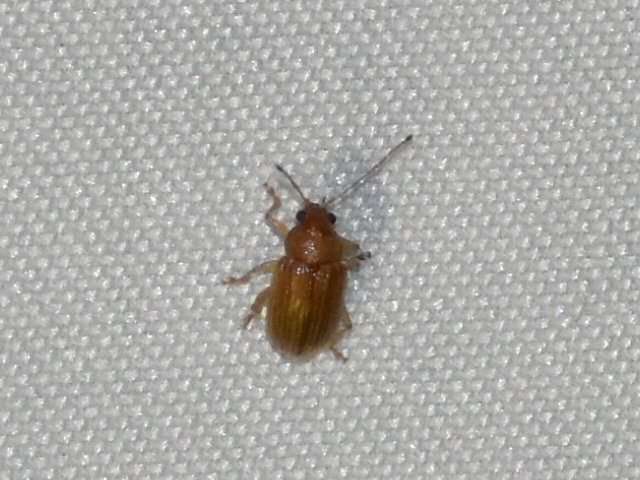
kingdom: Animalia
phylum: Arthropoda
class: Insecta
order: Coleoptera
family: Chrysomelidae
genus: Colaspis
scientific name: Colaspis brunnea
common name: Grape colaspis
